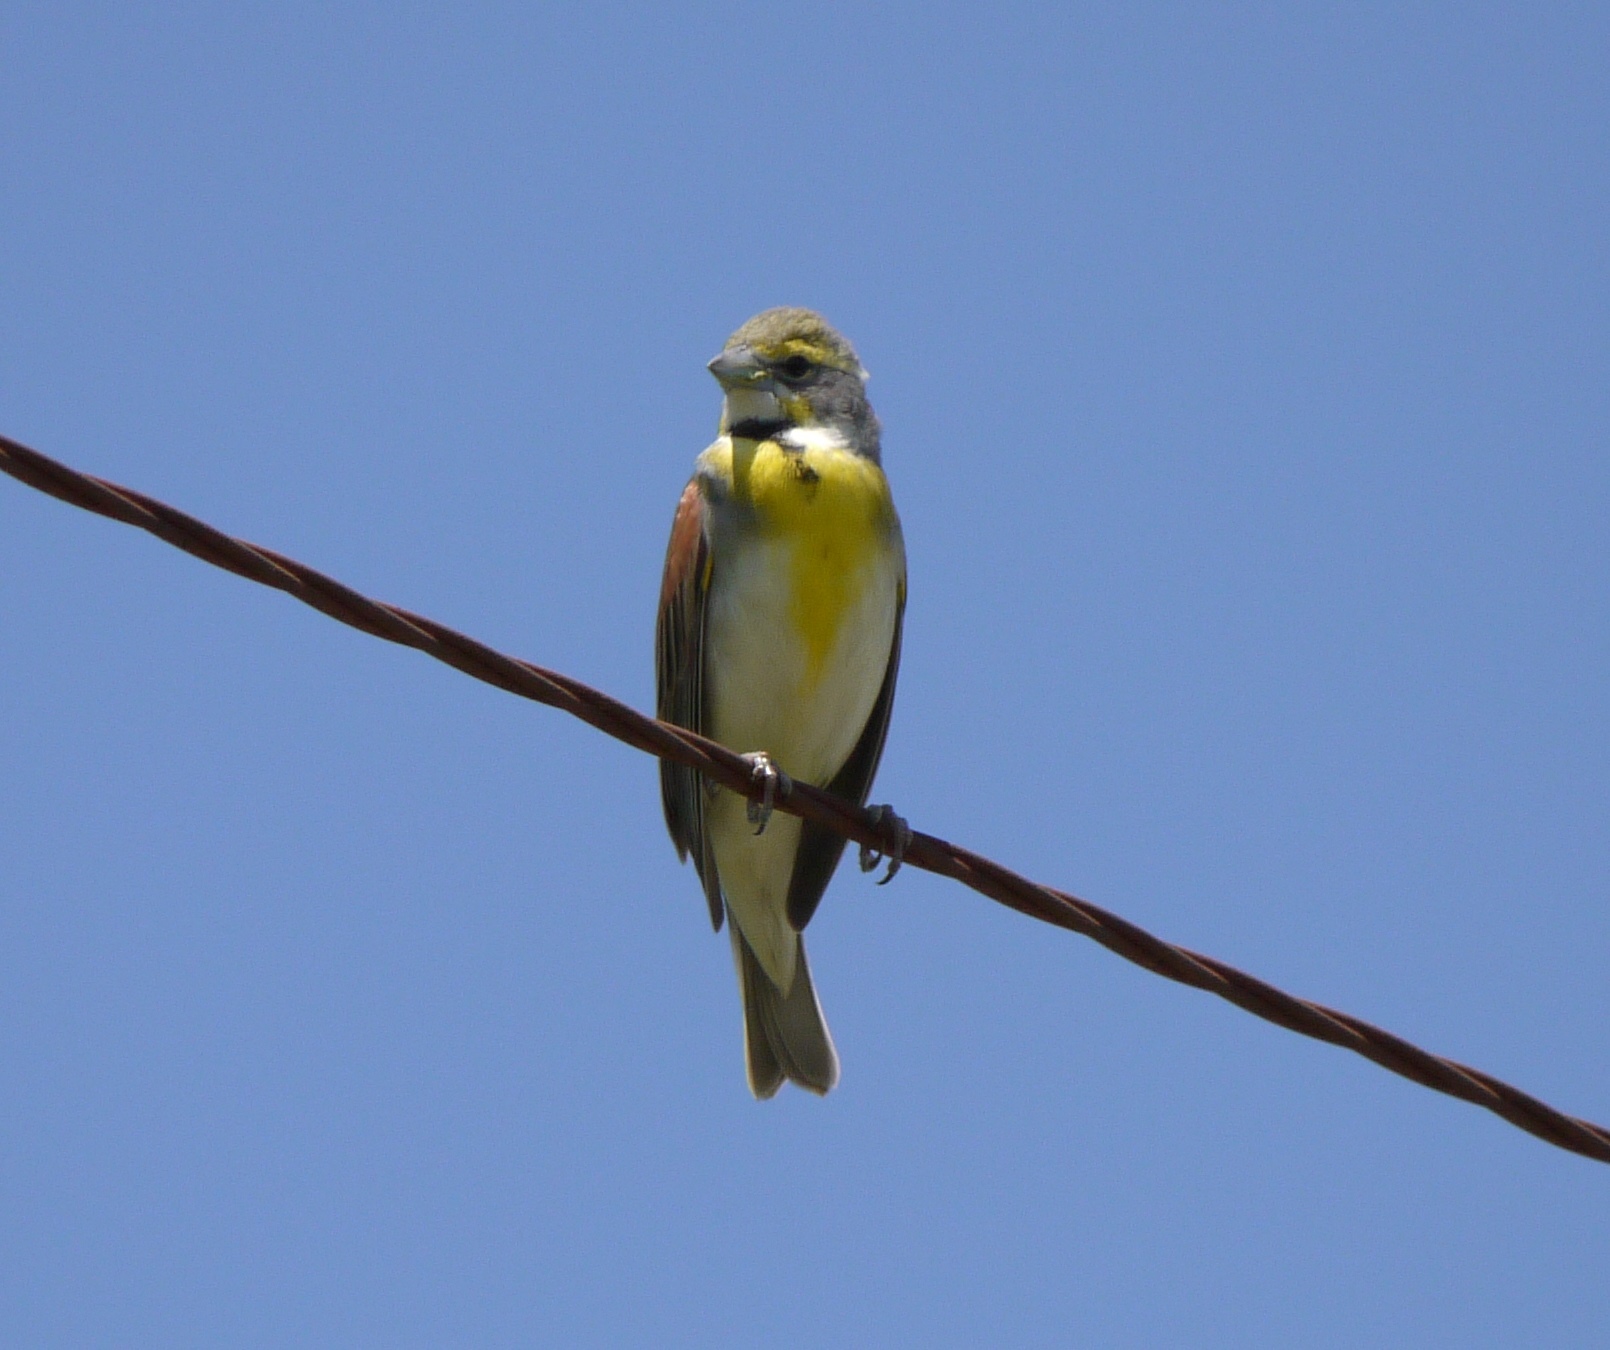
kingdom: Animalia
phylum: Chordata
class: Aves
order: Passeriformes
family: Cardinalidae
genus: Spiza
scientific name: Spiza americana
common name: Dickcissel
